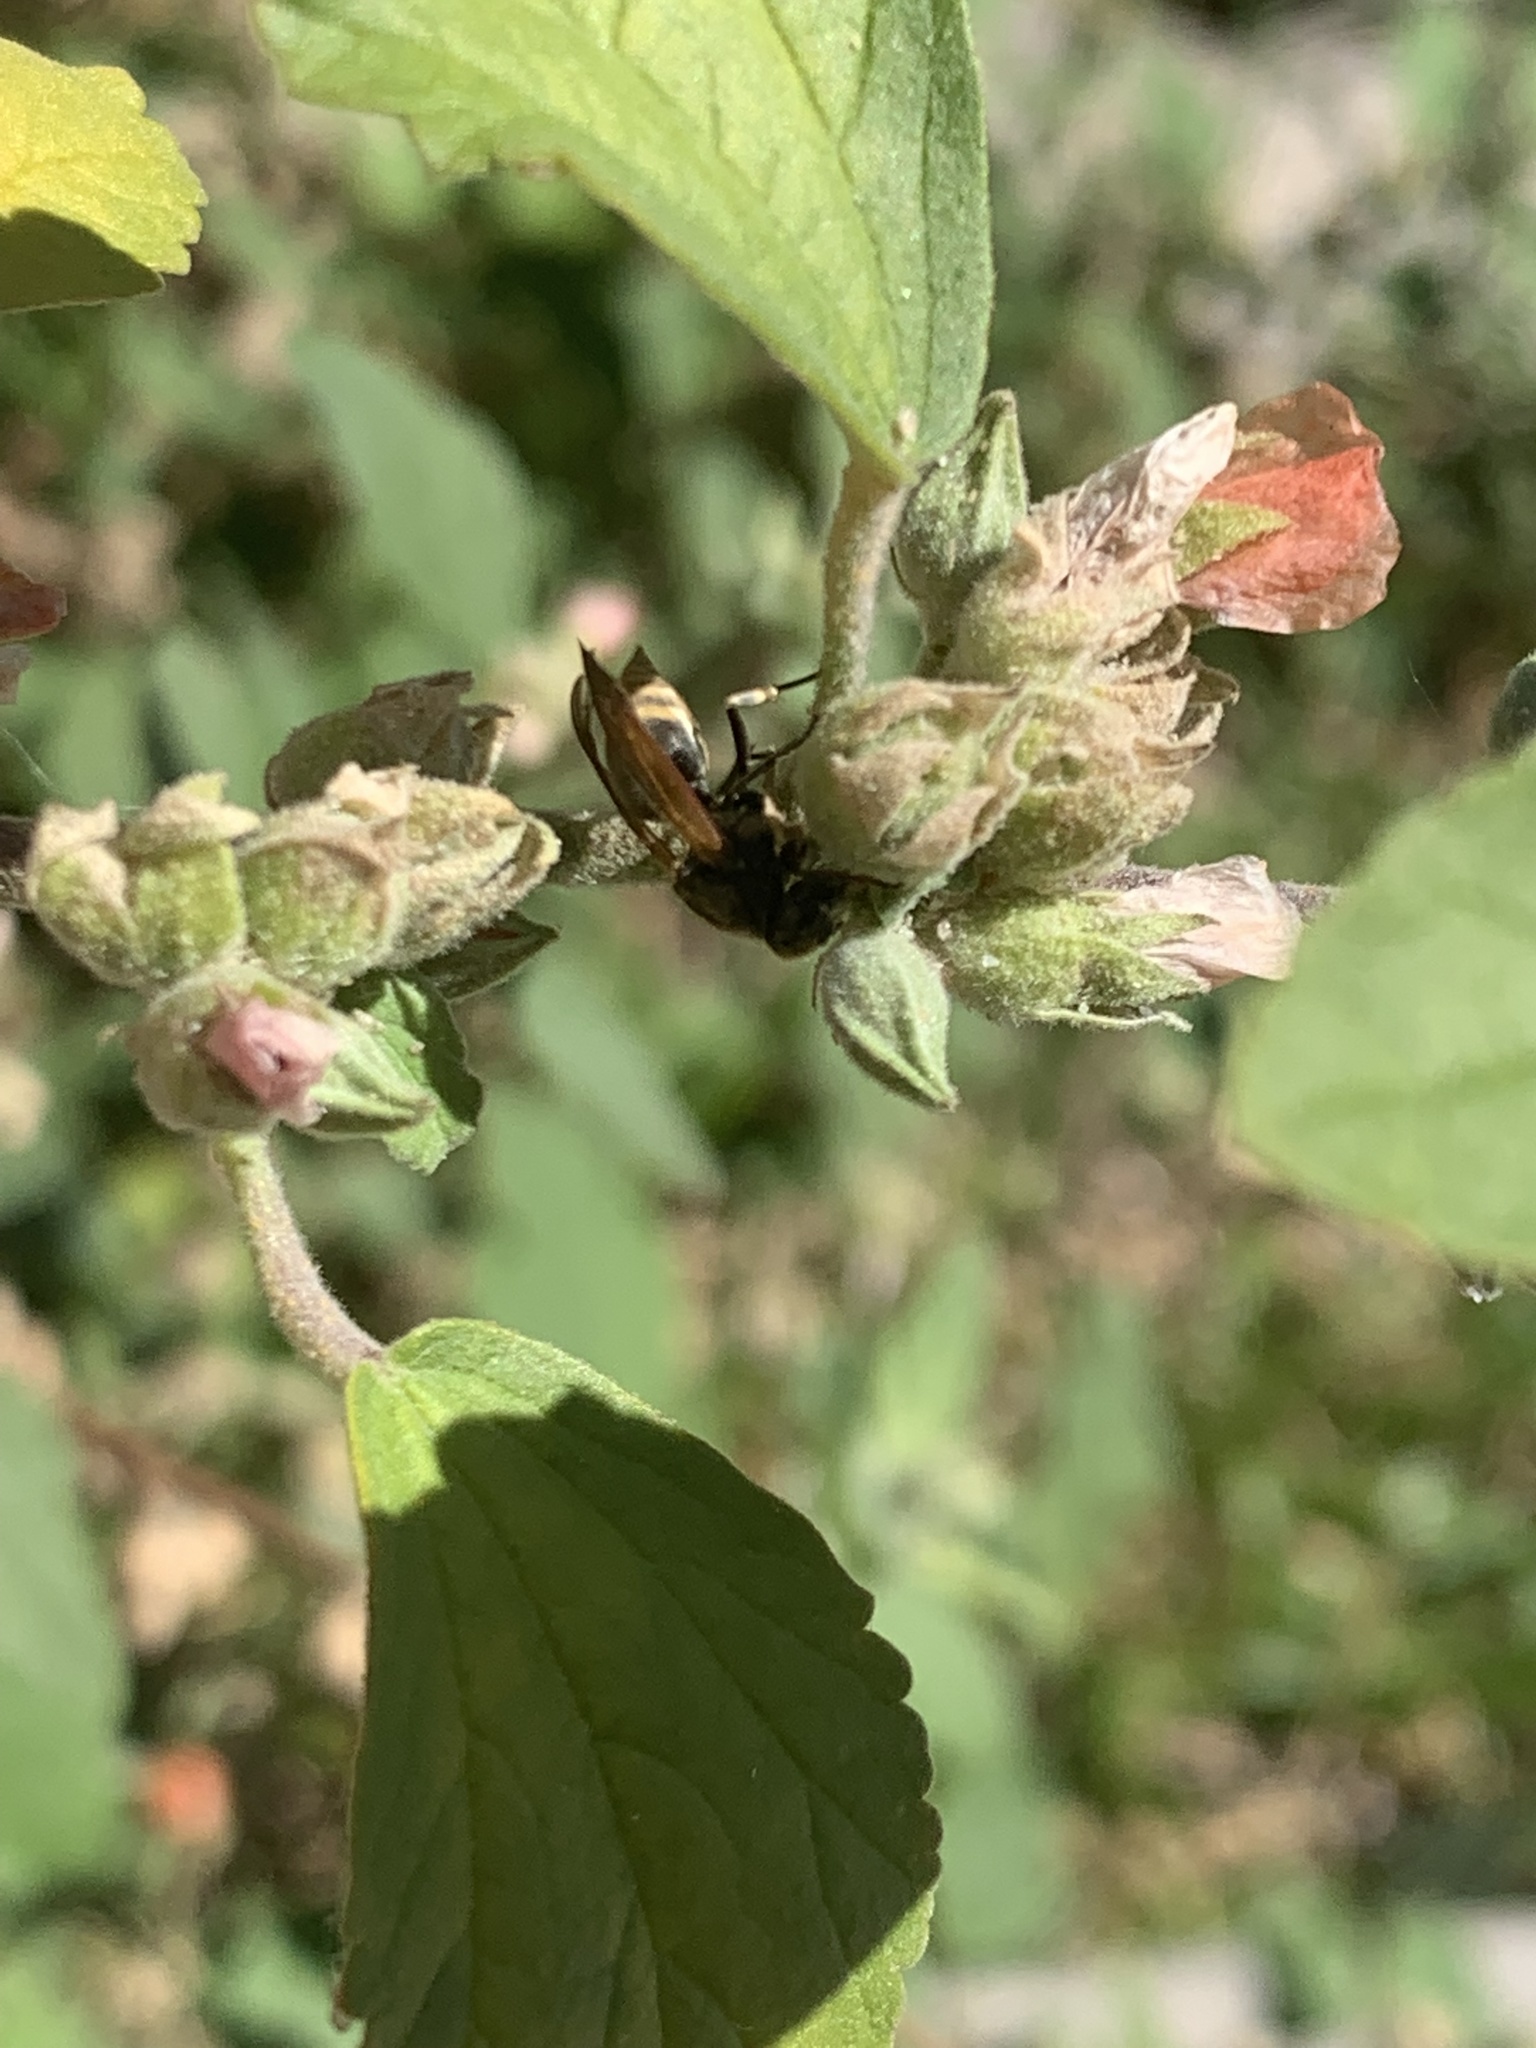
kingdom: Animalia
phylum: Arthropoda
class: Insecta
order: Hymenoptera
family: Vespidae
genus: Brachygastra
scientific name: Brachygastra lecheguana
